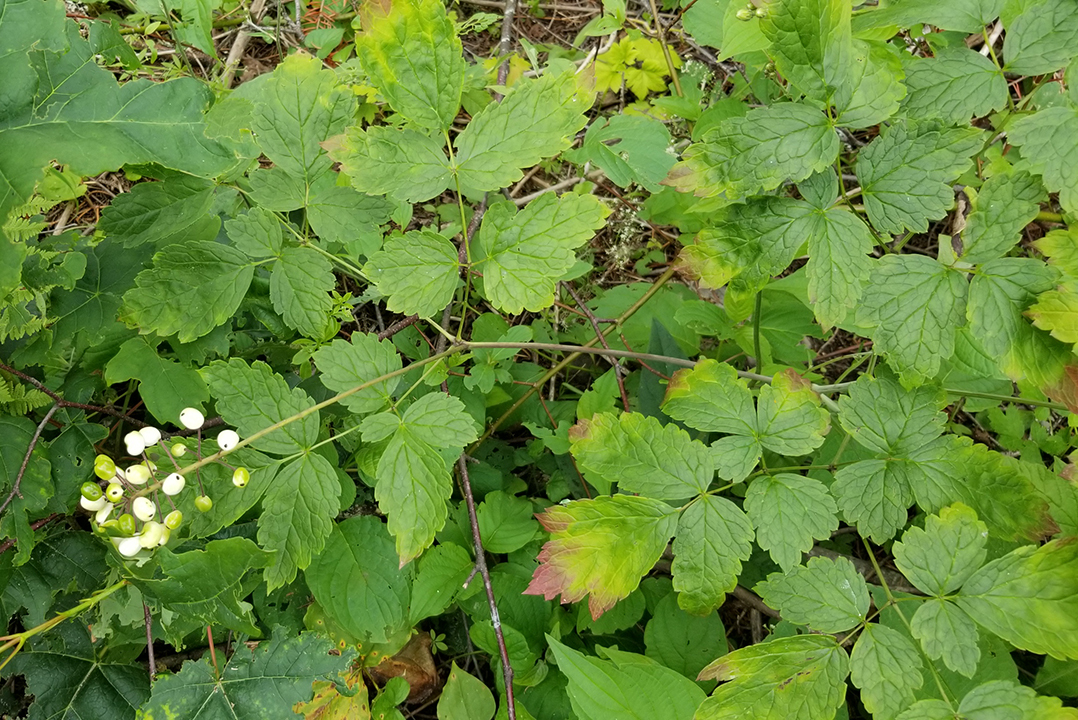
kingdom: Plantae
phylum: Tracheophyta
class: Magnoliopsida
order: Ranunculales
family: Ranunculaceae
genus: Actaea
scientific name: Actaea rubra
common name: Red baneberry
